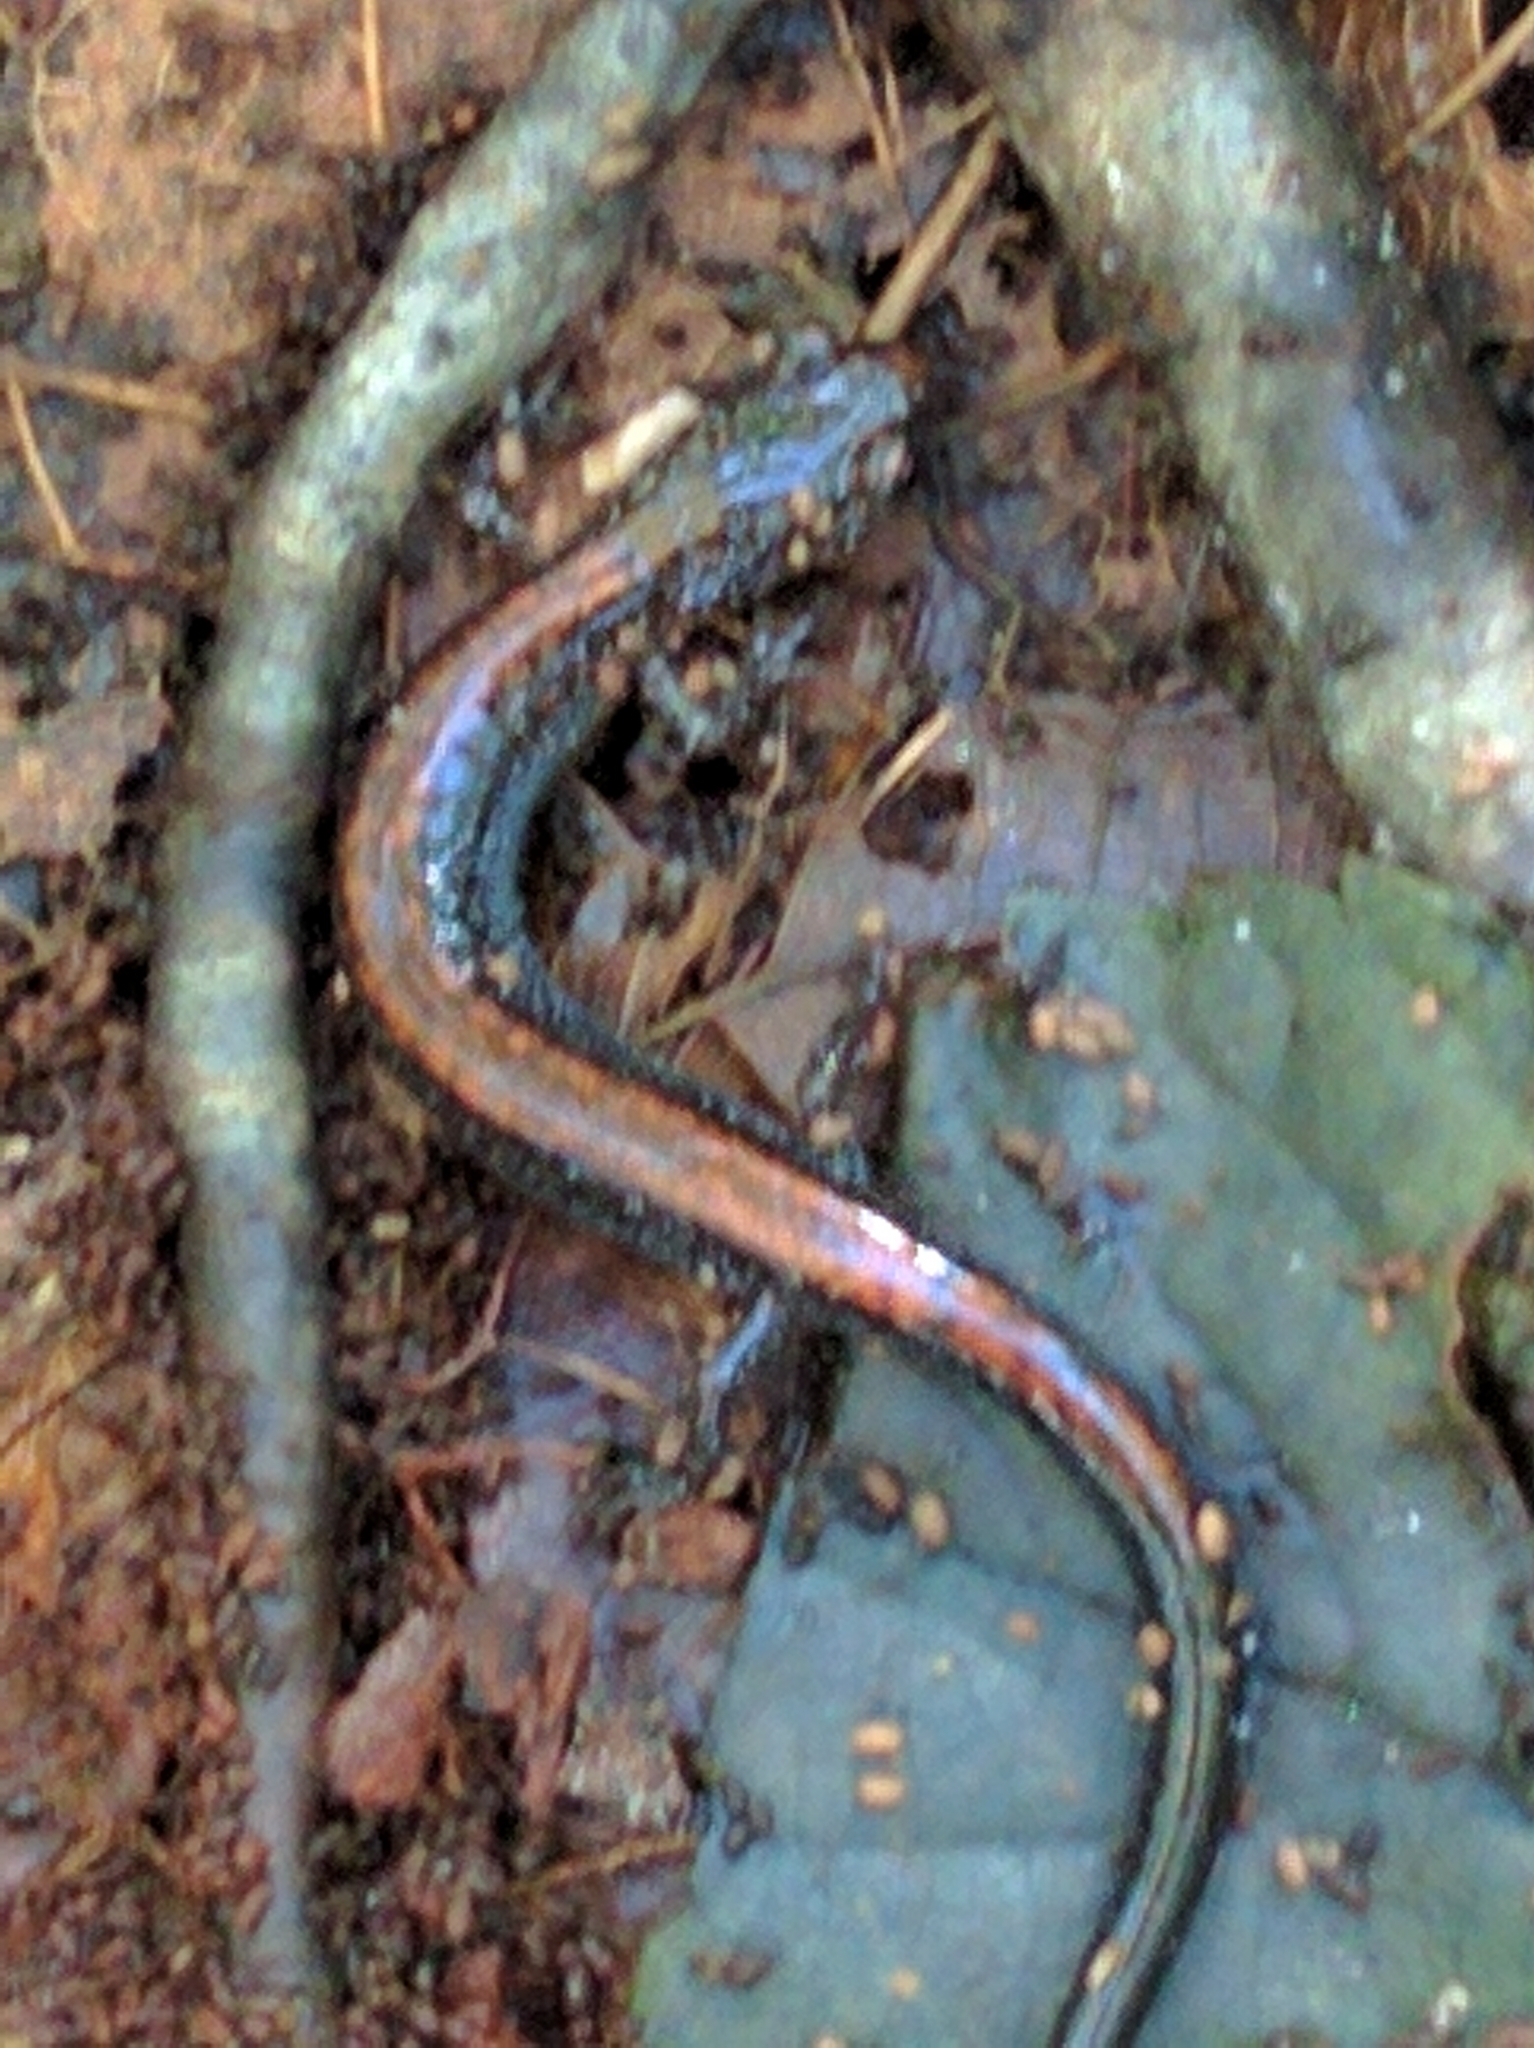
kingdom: Animalia
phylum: Chordata
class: Amphibia
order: Caudata
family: Plethodontidae
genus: Plethodon
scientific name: Plethodon cinereus
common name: Redback salamander
